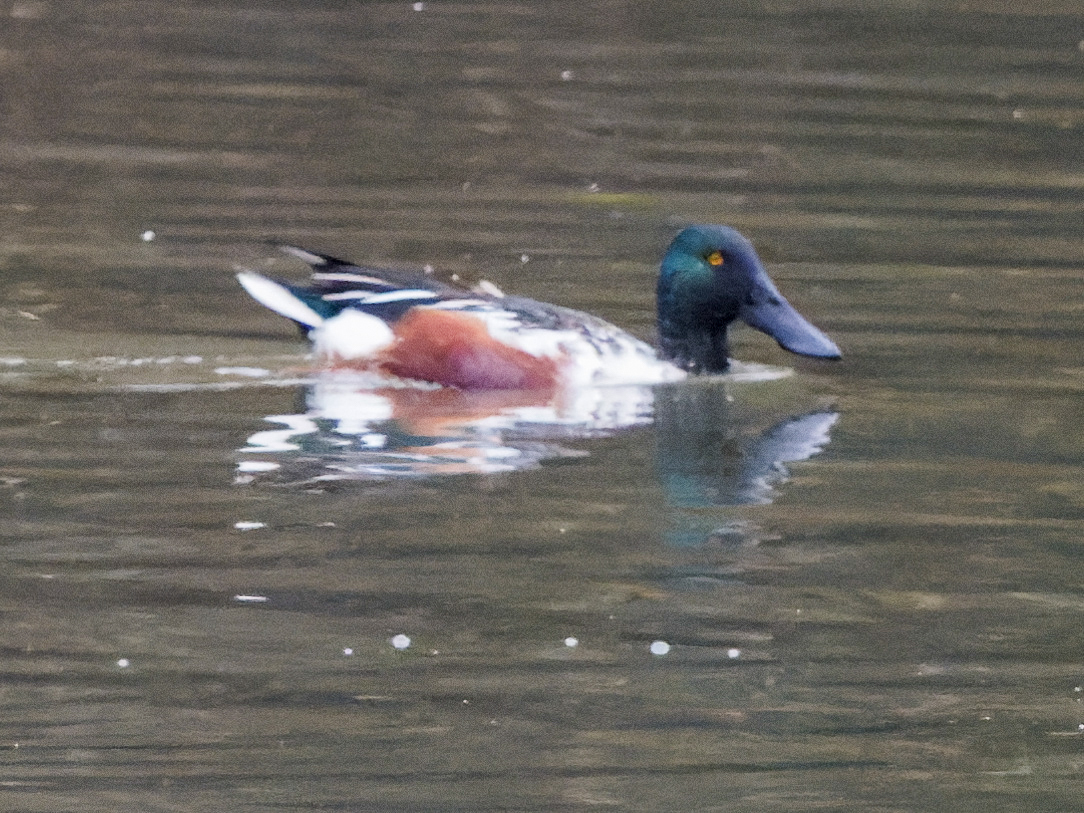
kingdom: Animalia
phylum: Chordata
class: Aves
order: Anseriformes
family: Anatidae
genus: Spatula
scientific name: Spatula clypeata
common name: Northern shoveler
